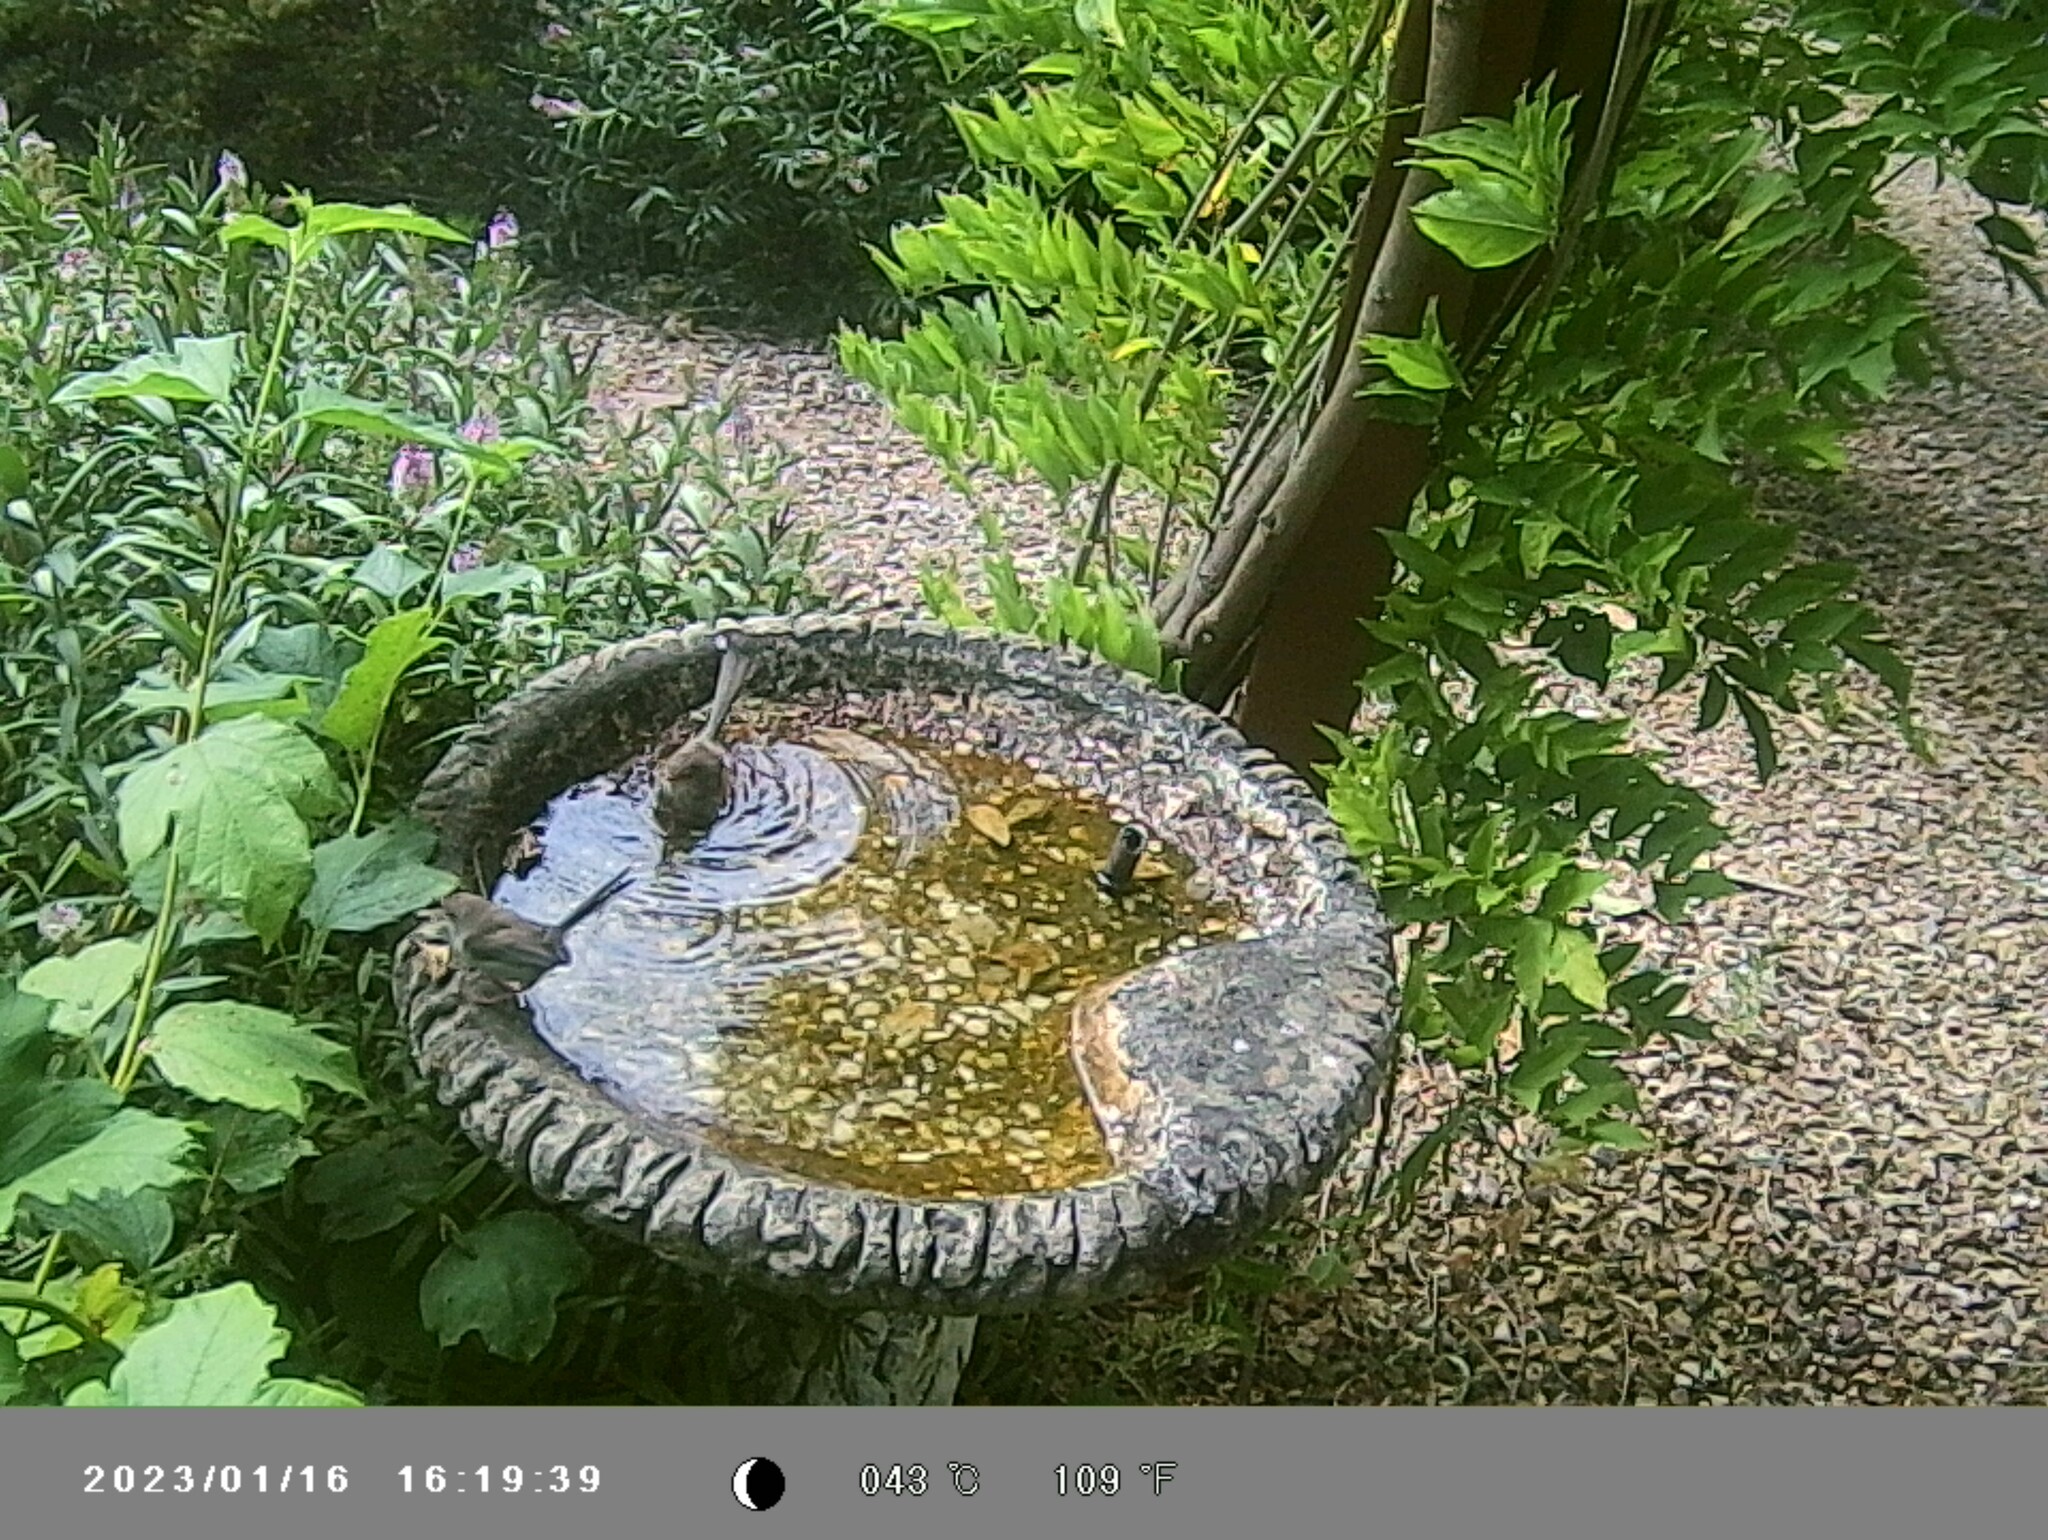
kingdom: Animalia
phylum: Chordata
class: Aves
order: Passeriformes
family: Maluridae
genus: Malurus
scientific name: Malurus cyaneus
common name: Superb fairywren
